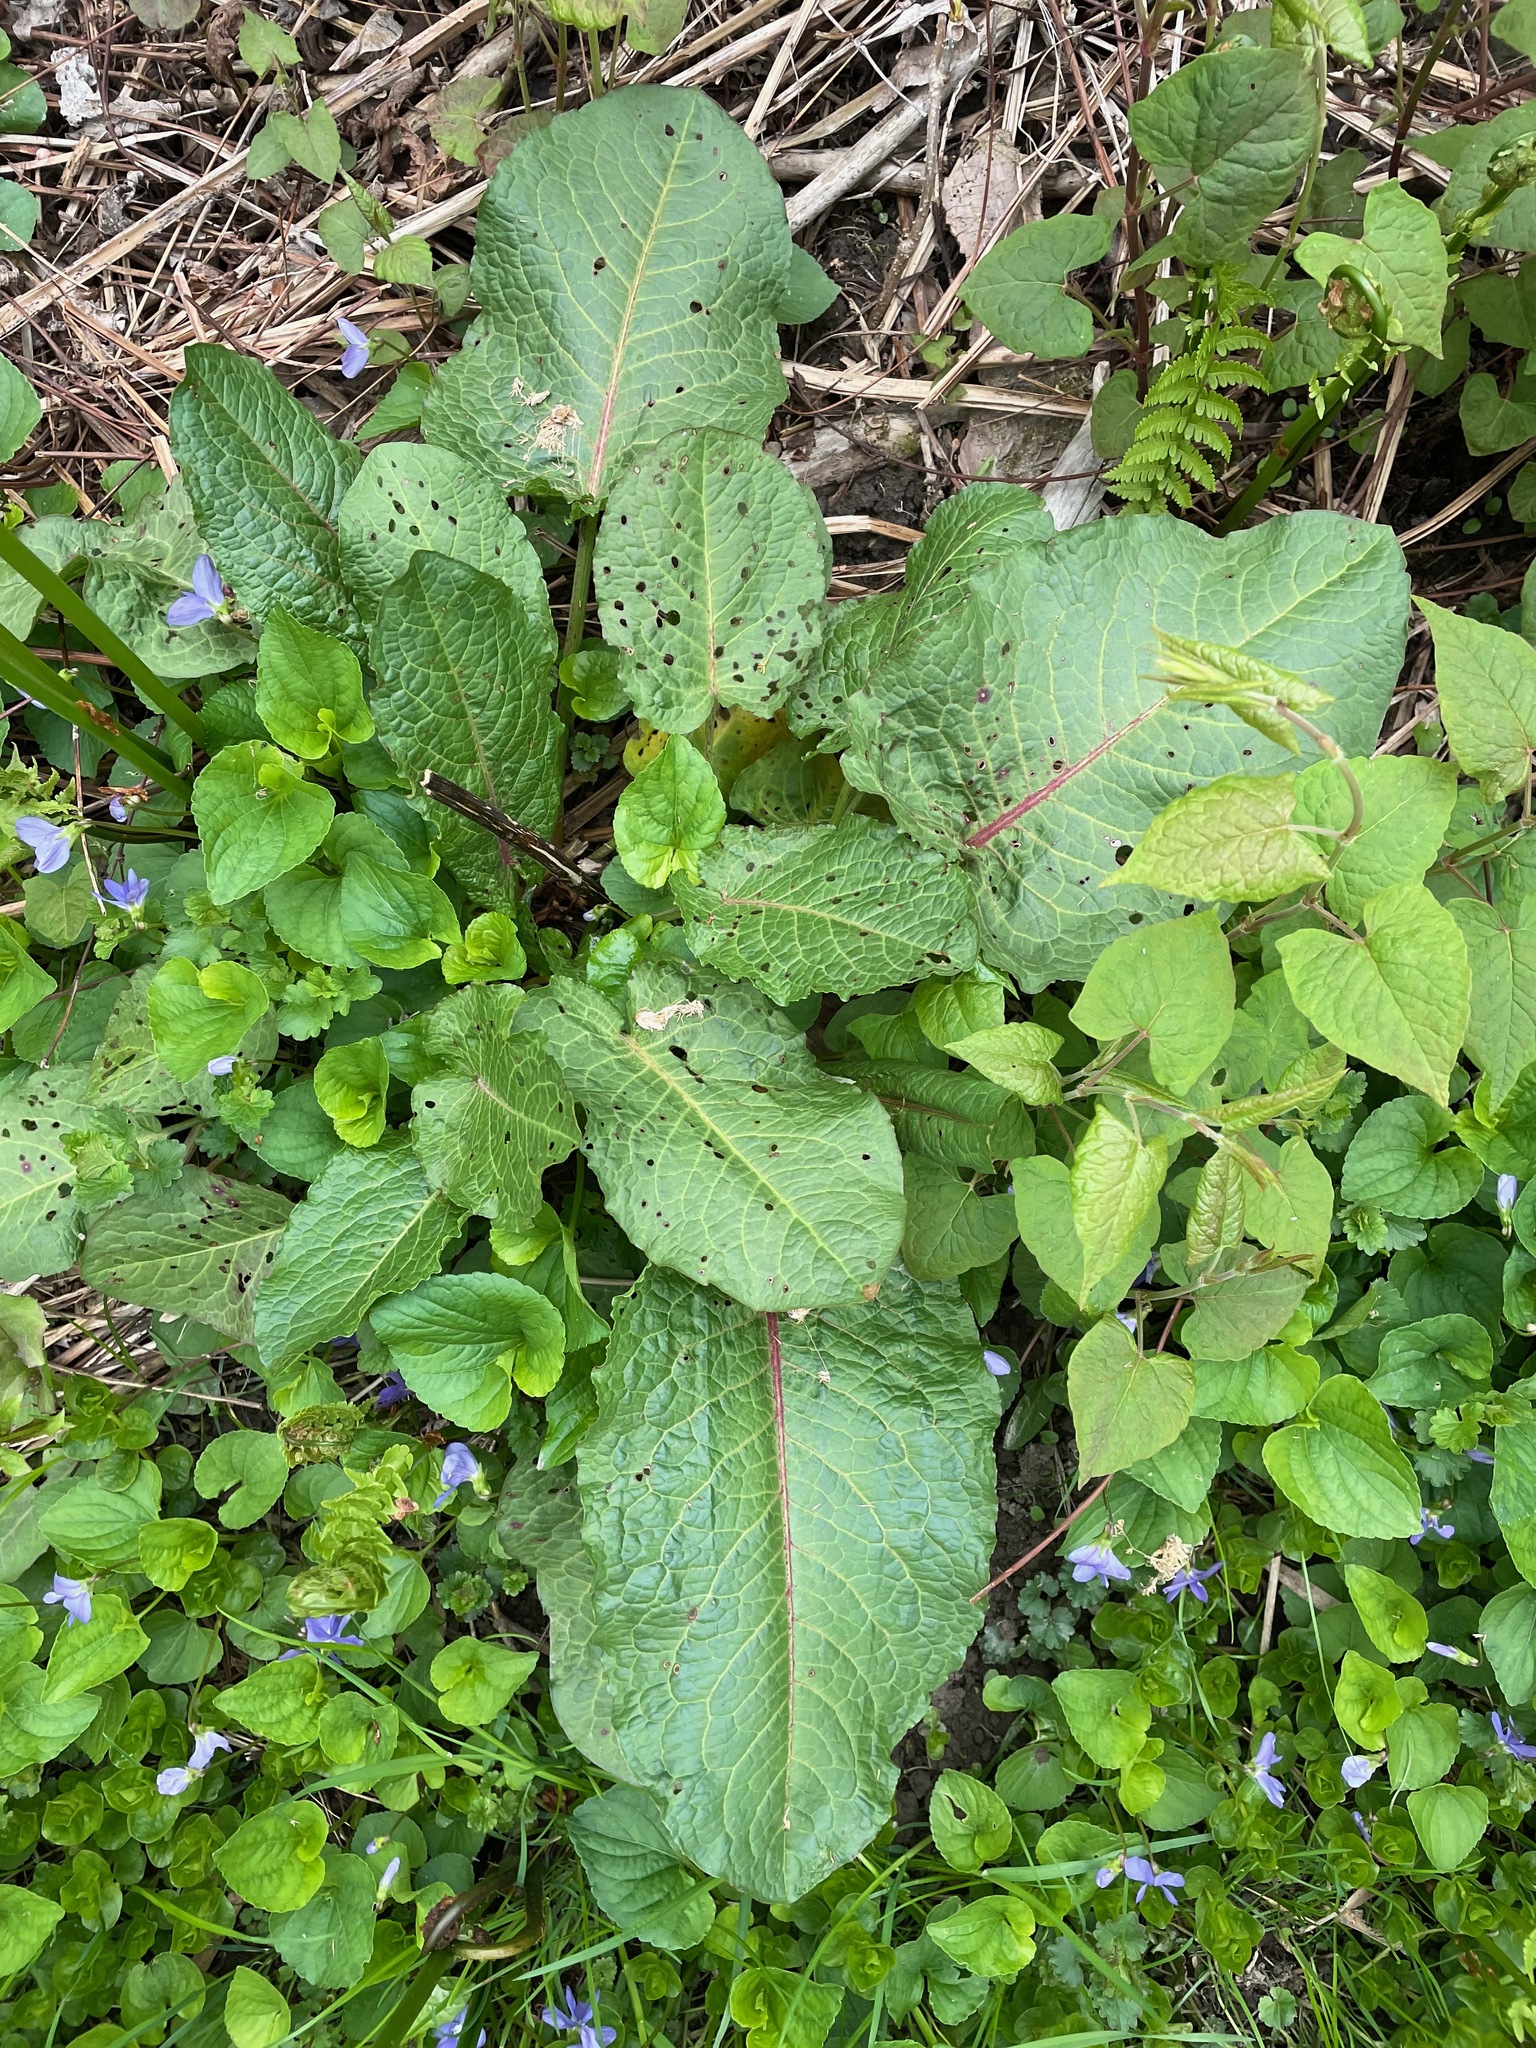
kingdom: Plantae
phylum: Tracheophyta
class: Magnoliopsida
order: Caryophyllales
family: Polygonaceae
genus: Rumex
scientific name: Rumex obtusifolius
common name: Bitter dock
